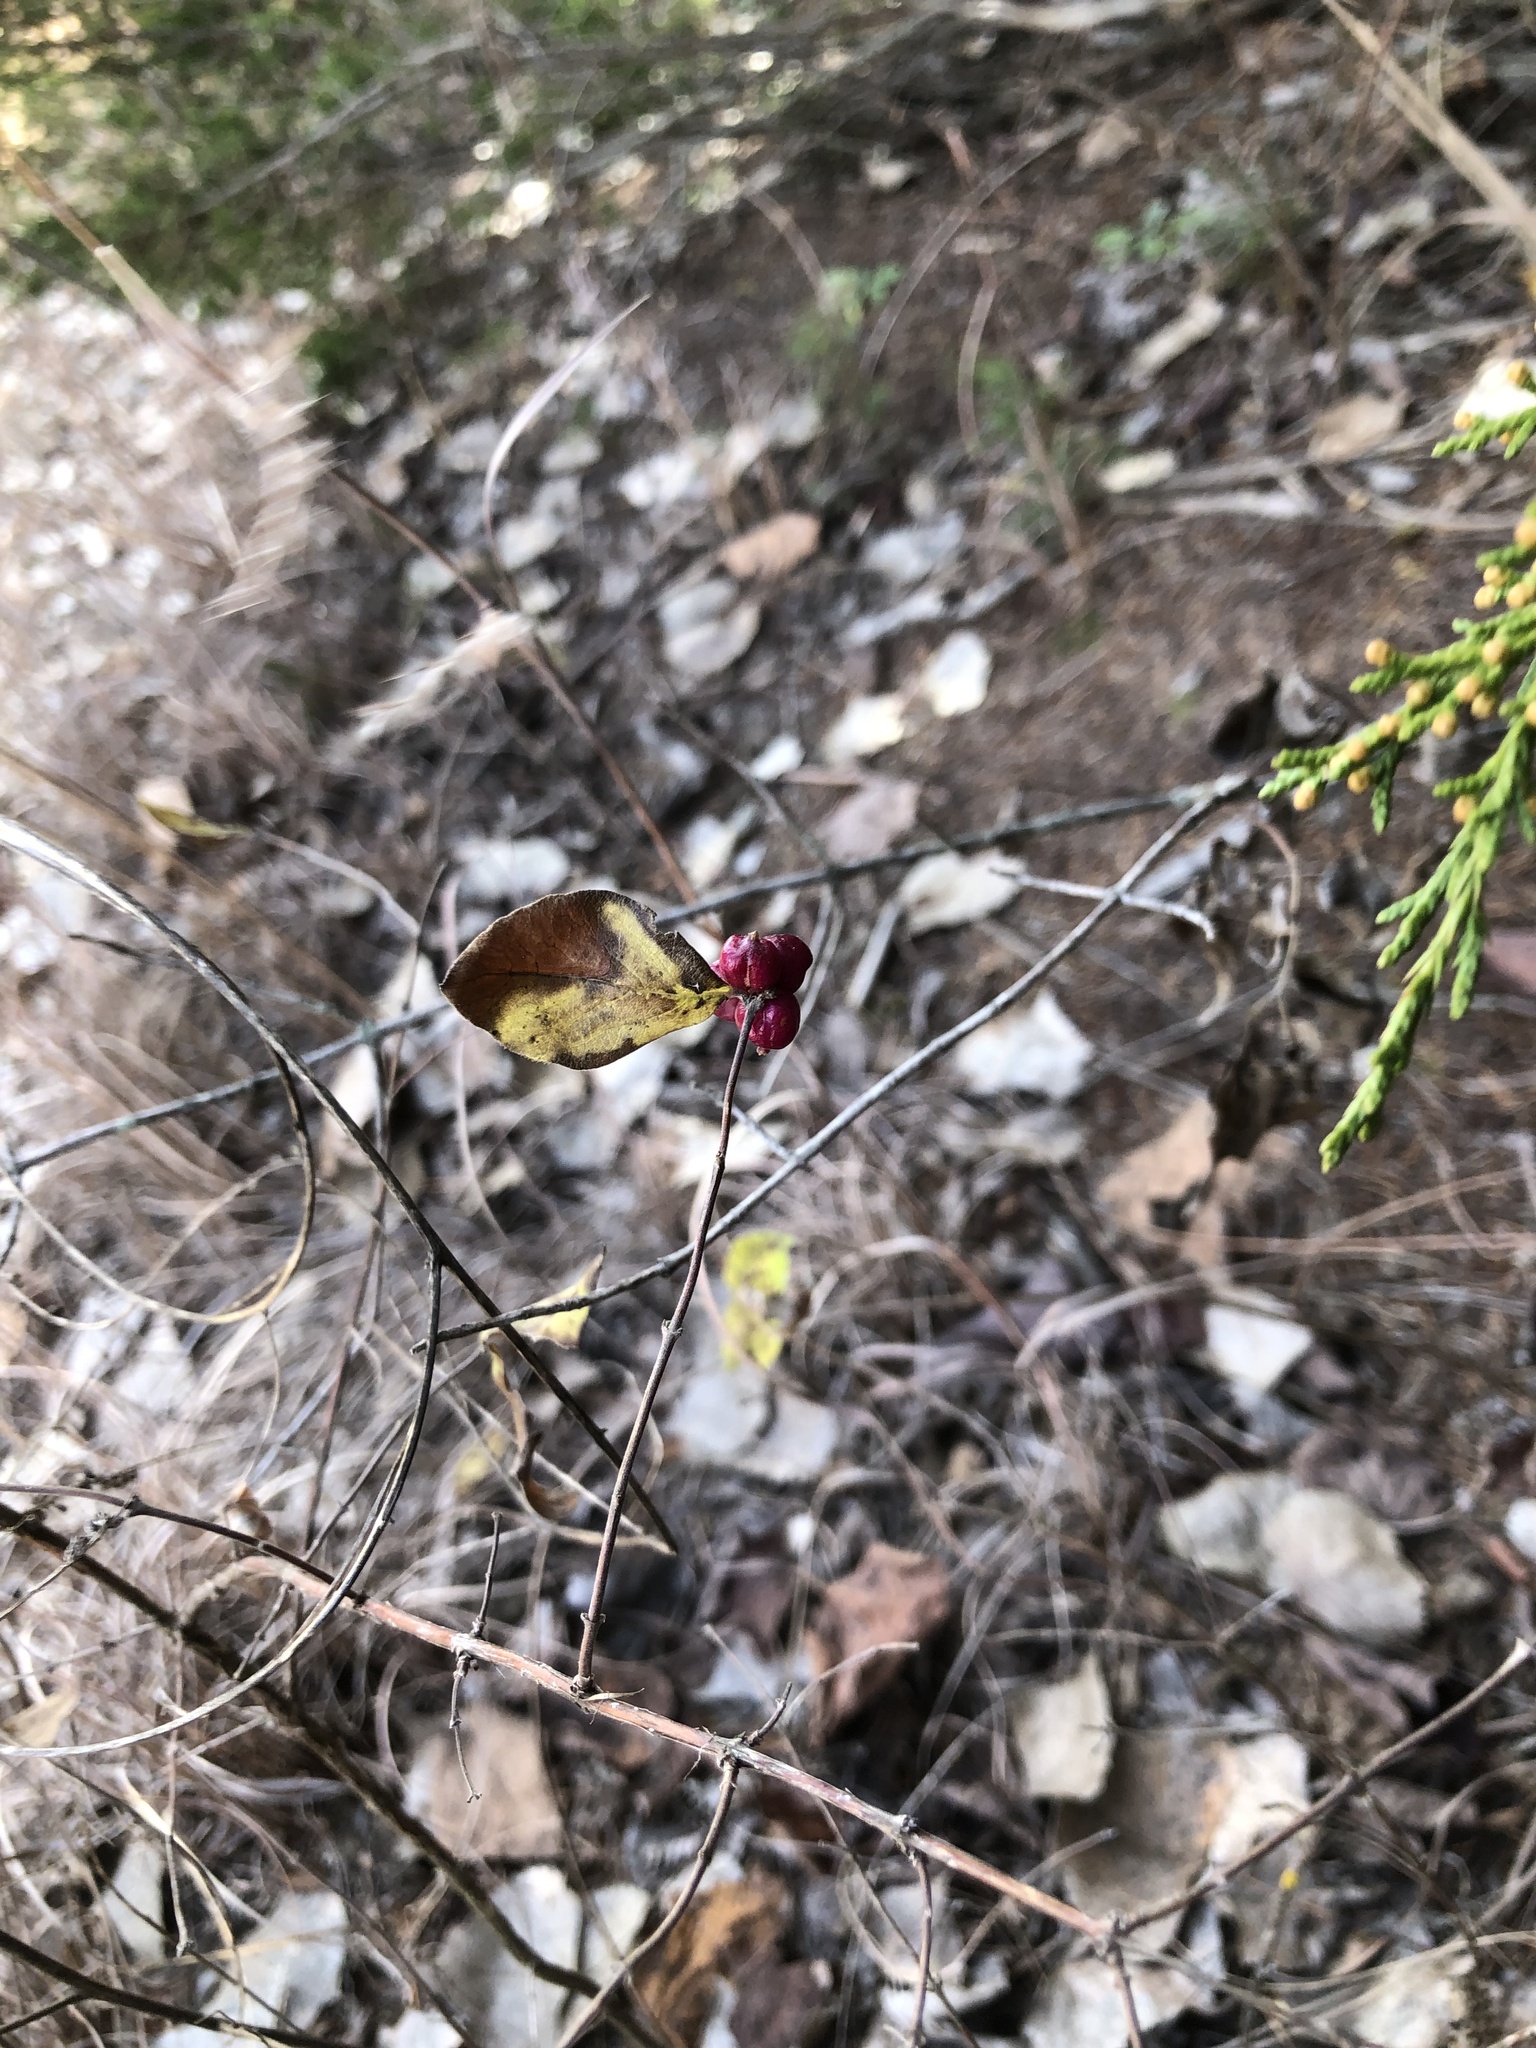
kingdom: Plantae
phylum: Tracheophyta
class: Magnoliopsida
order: Dipsacales
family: Caprifoliaceae
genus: Symphoricarpos
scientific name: Symphoricarpos orbiculatus
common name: Coralberry
